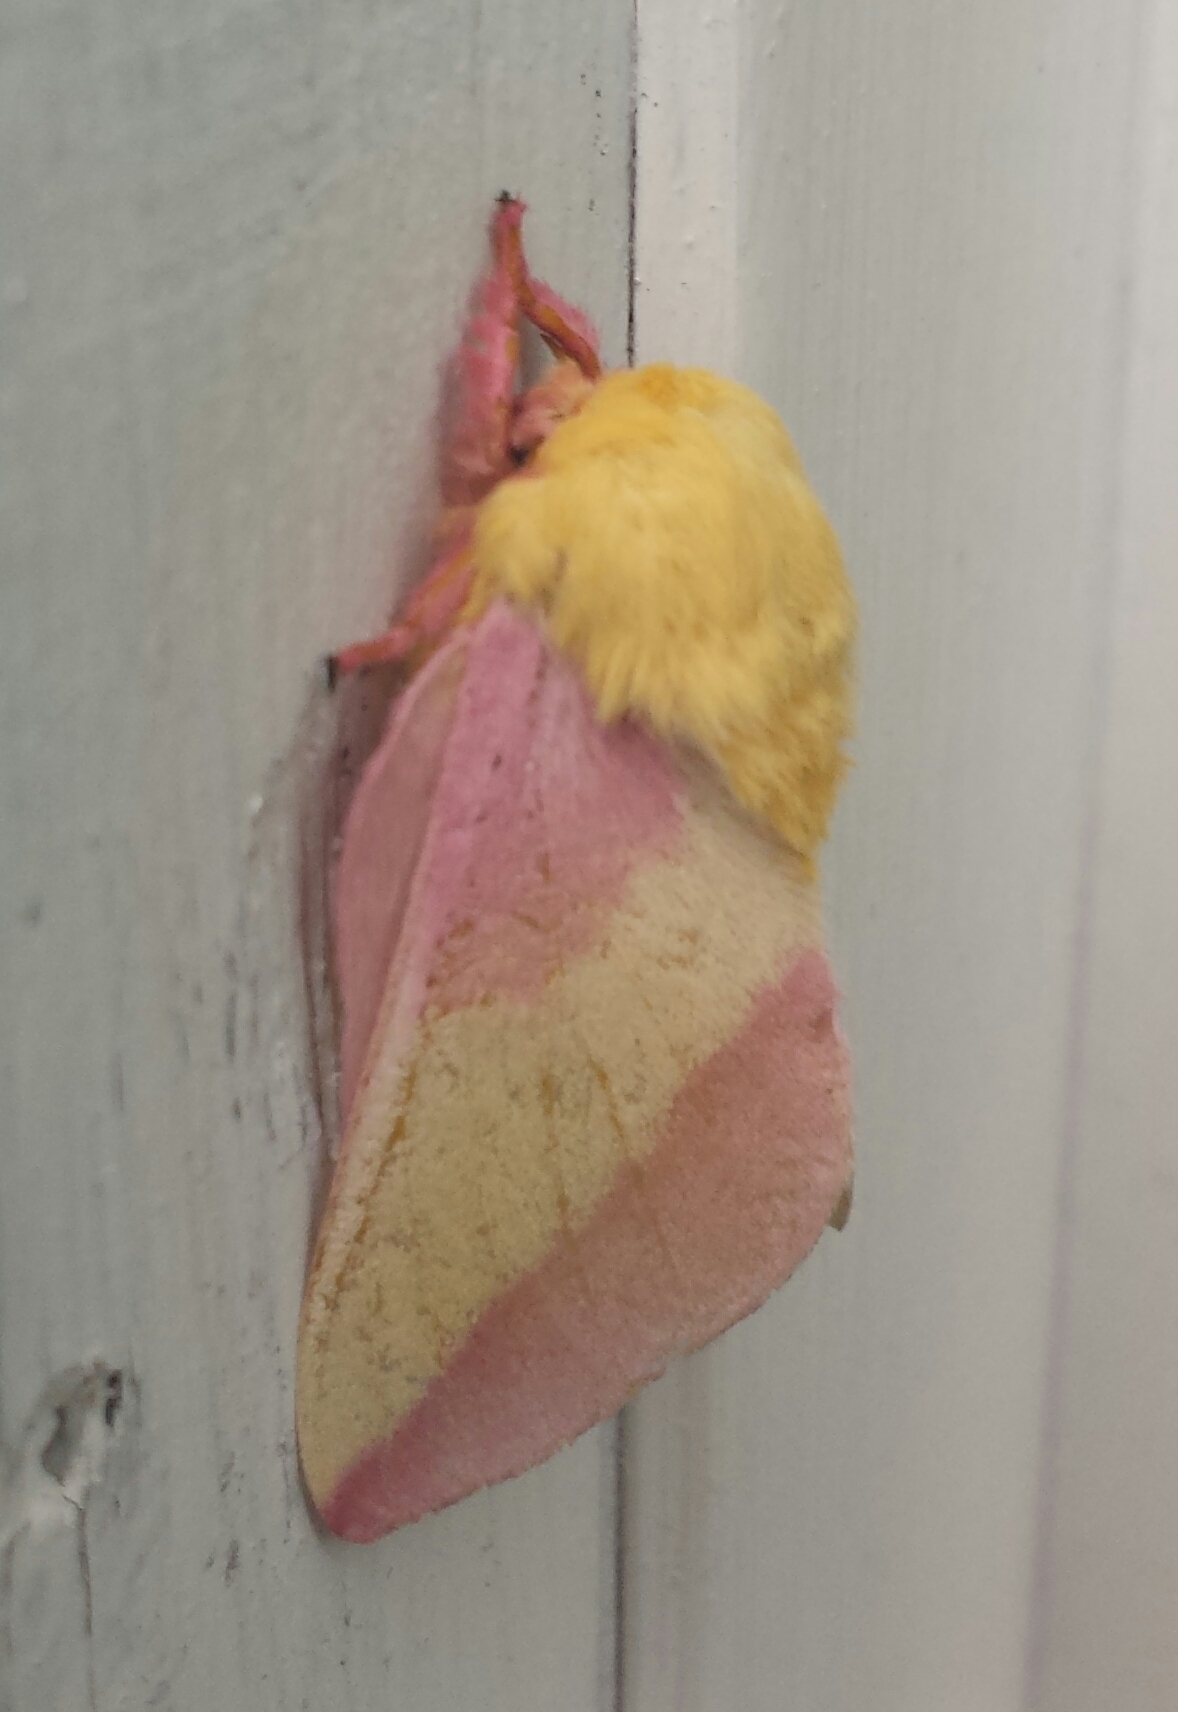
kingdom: Animalia
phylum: Arthropoda
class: Insecta
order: Lepidoptera
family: Saturniidae
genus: Dryocampa
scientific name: Dryocampa rubicunda
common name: Rosy maple moth
